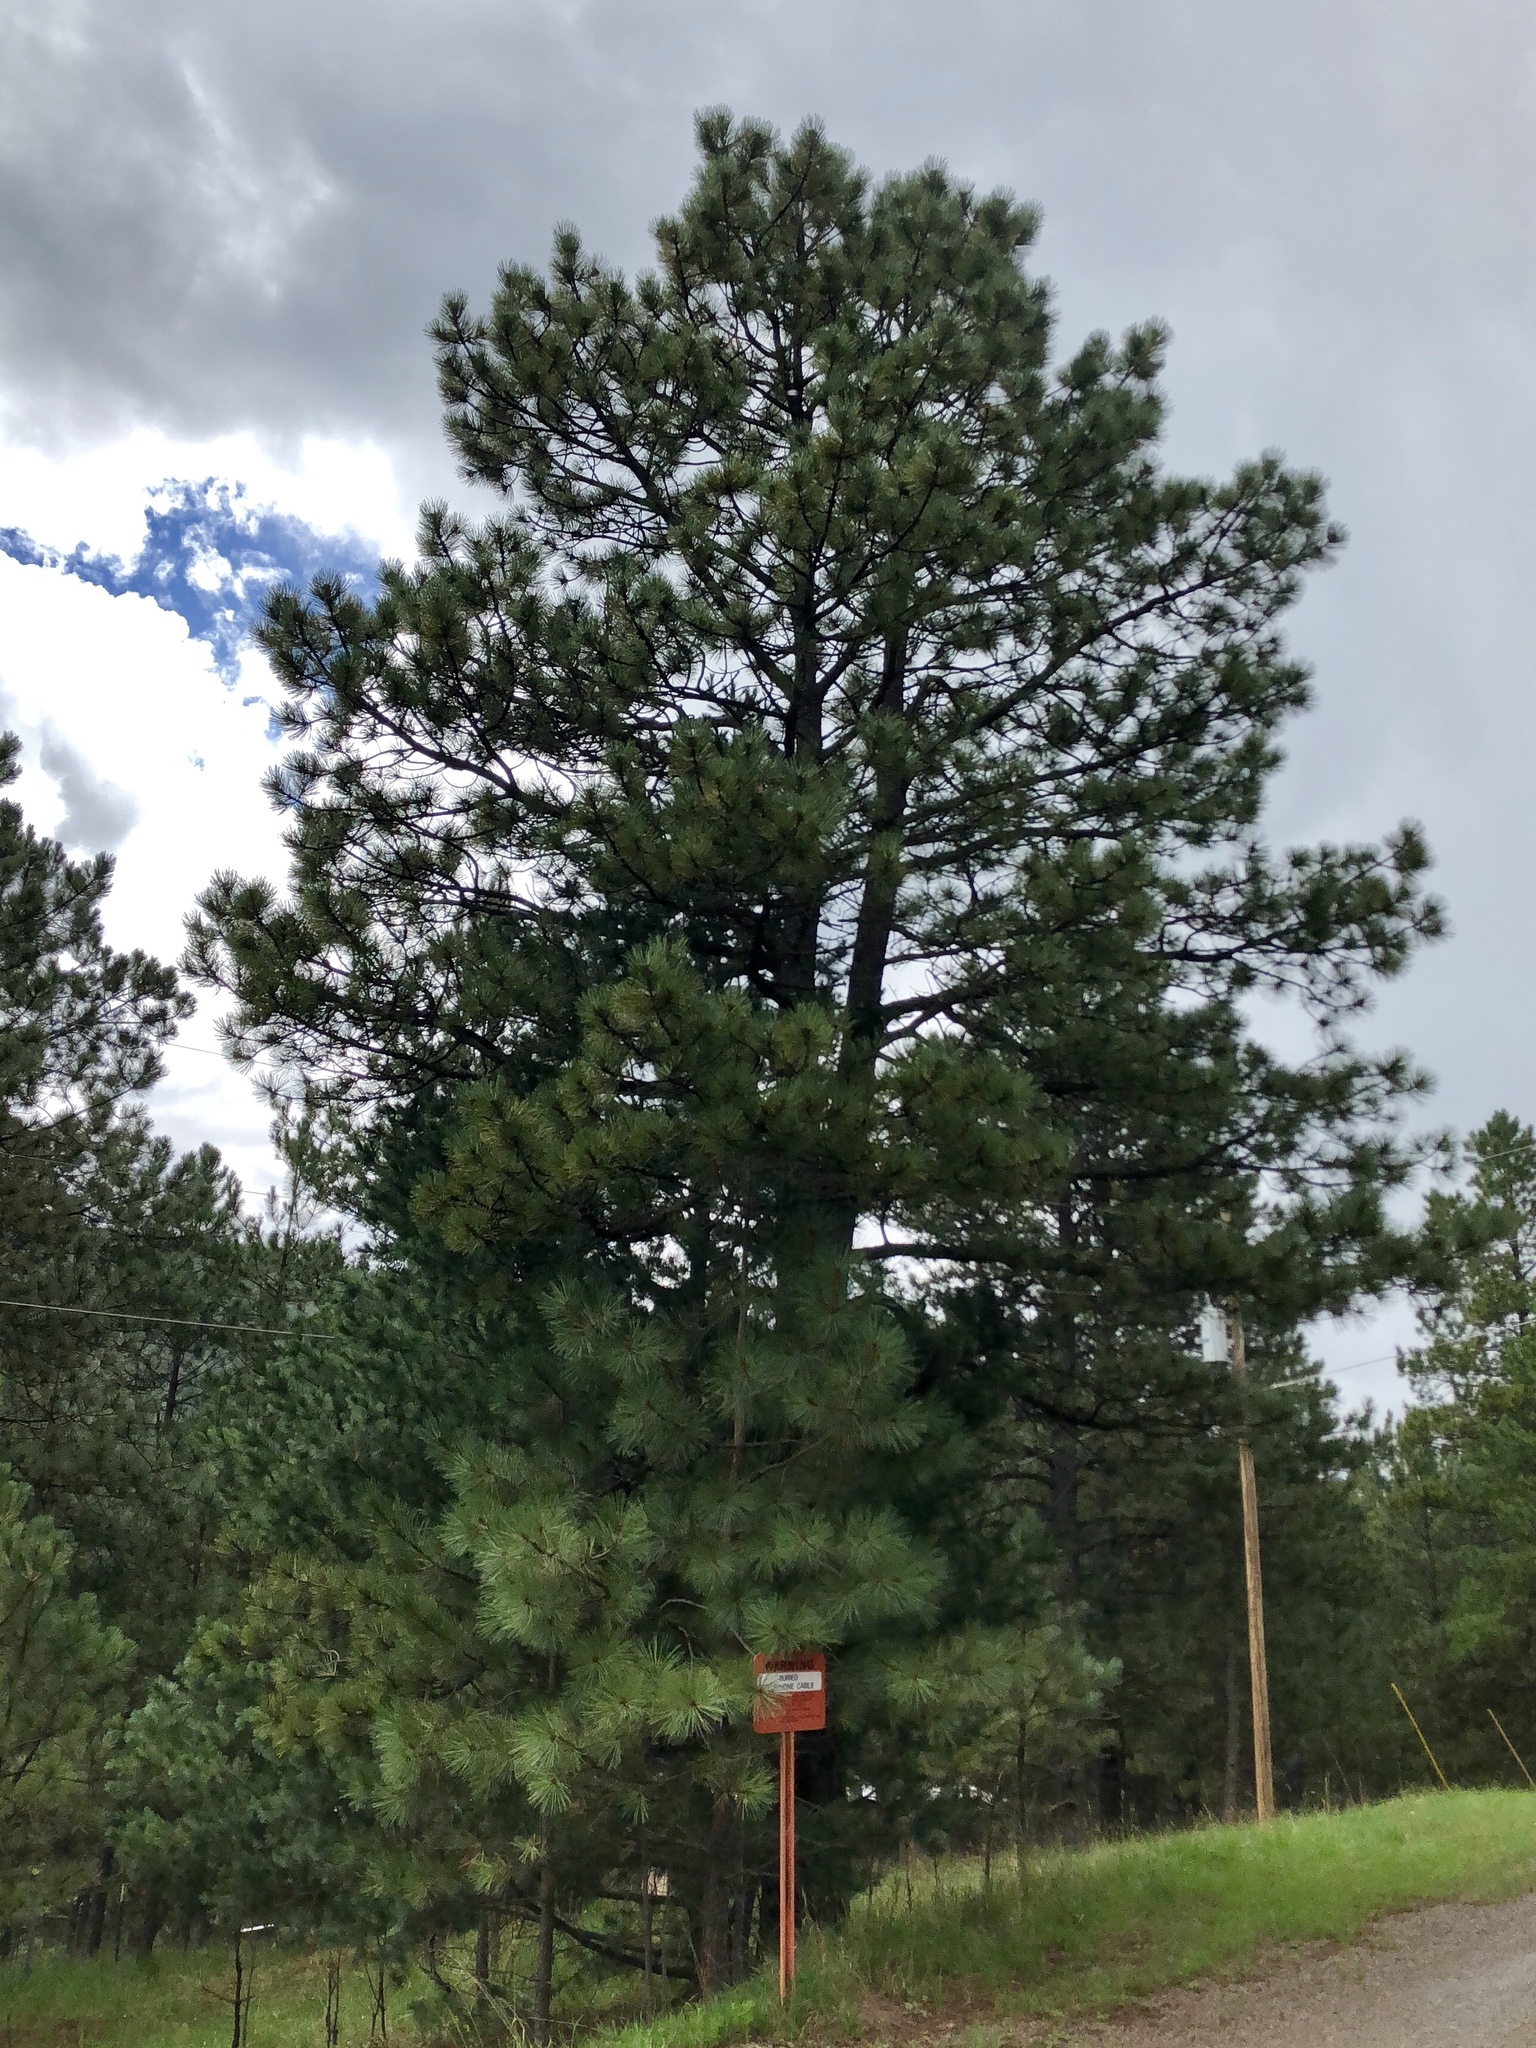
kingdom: Plantae
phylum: Tracheophyta
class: Pinopsida
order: Pinales
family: Pinaceae
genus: Pinus
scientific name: Pinus ponderosa
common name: Western yellow-pine
